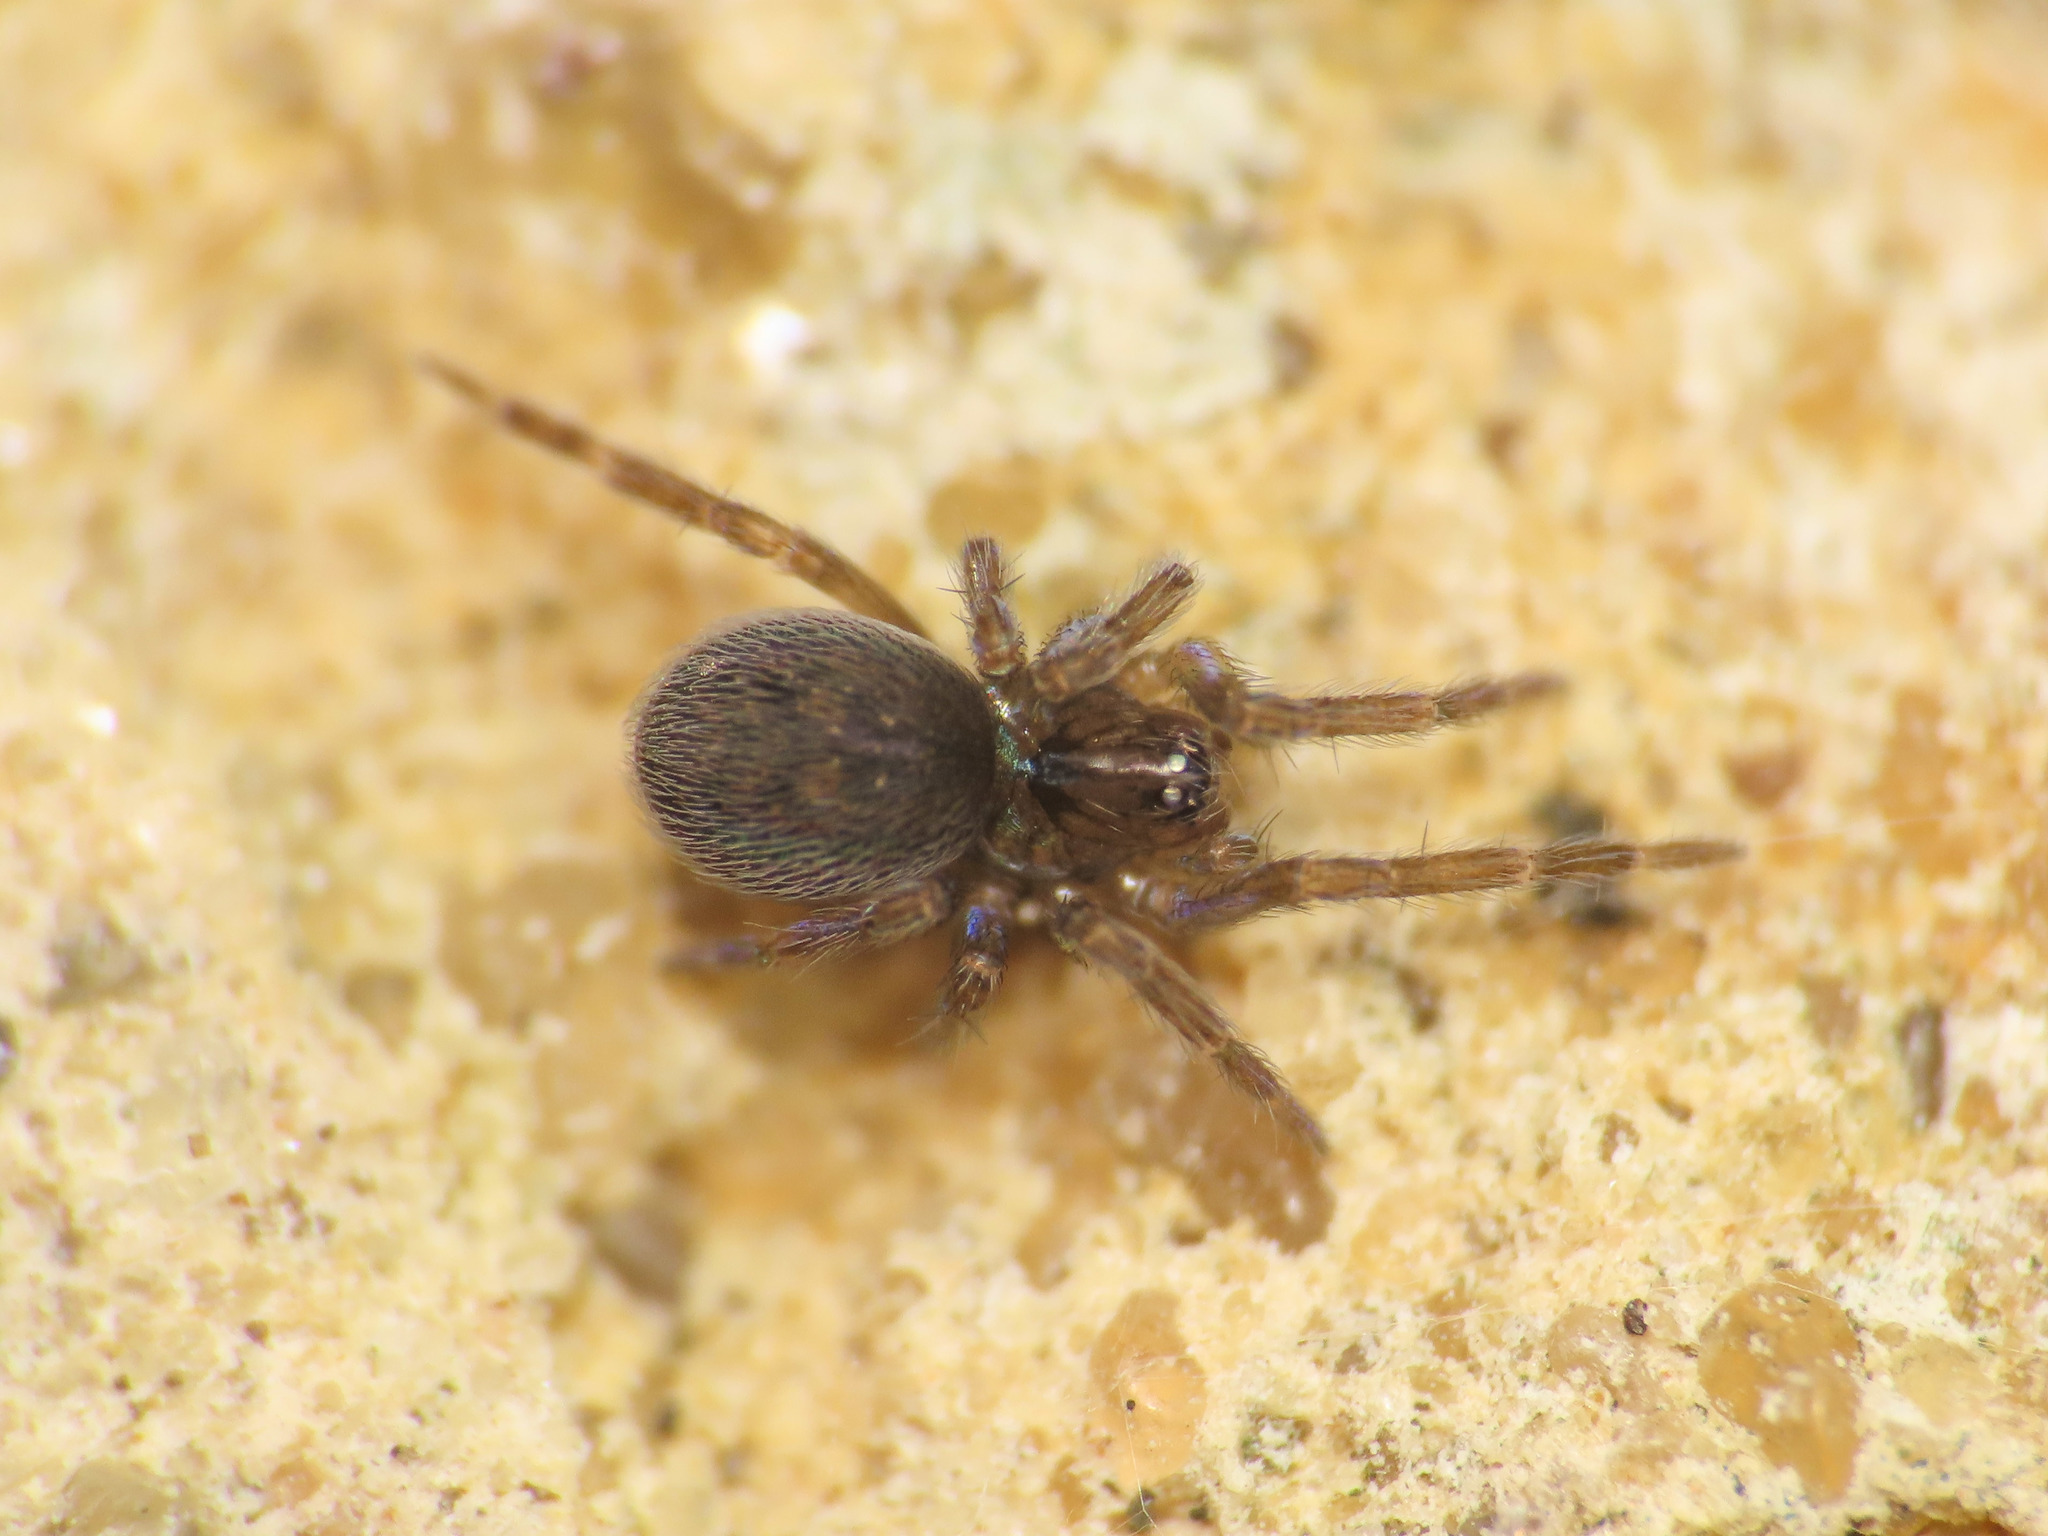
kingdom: Animalia
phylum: Arthropoda
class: Arachnida
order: Araneae
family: Dictynidae
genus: Lathys
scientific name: Lathys stigmatisata
